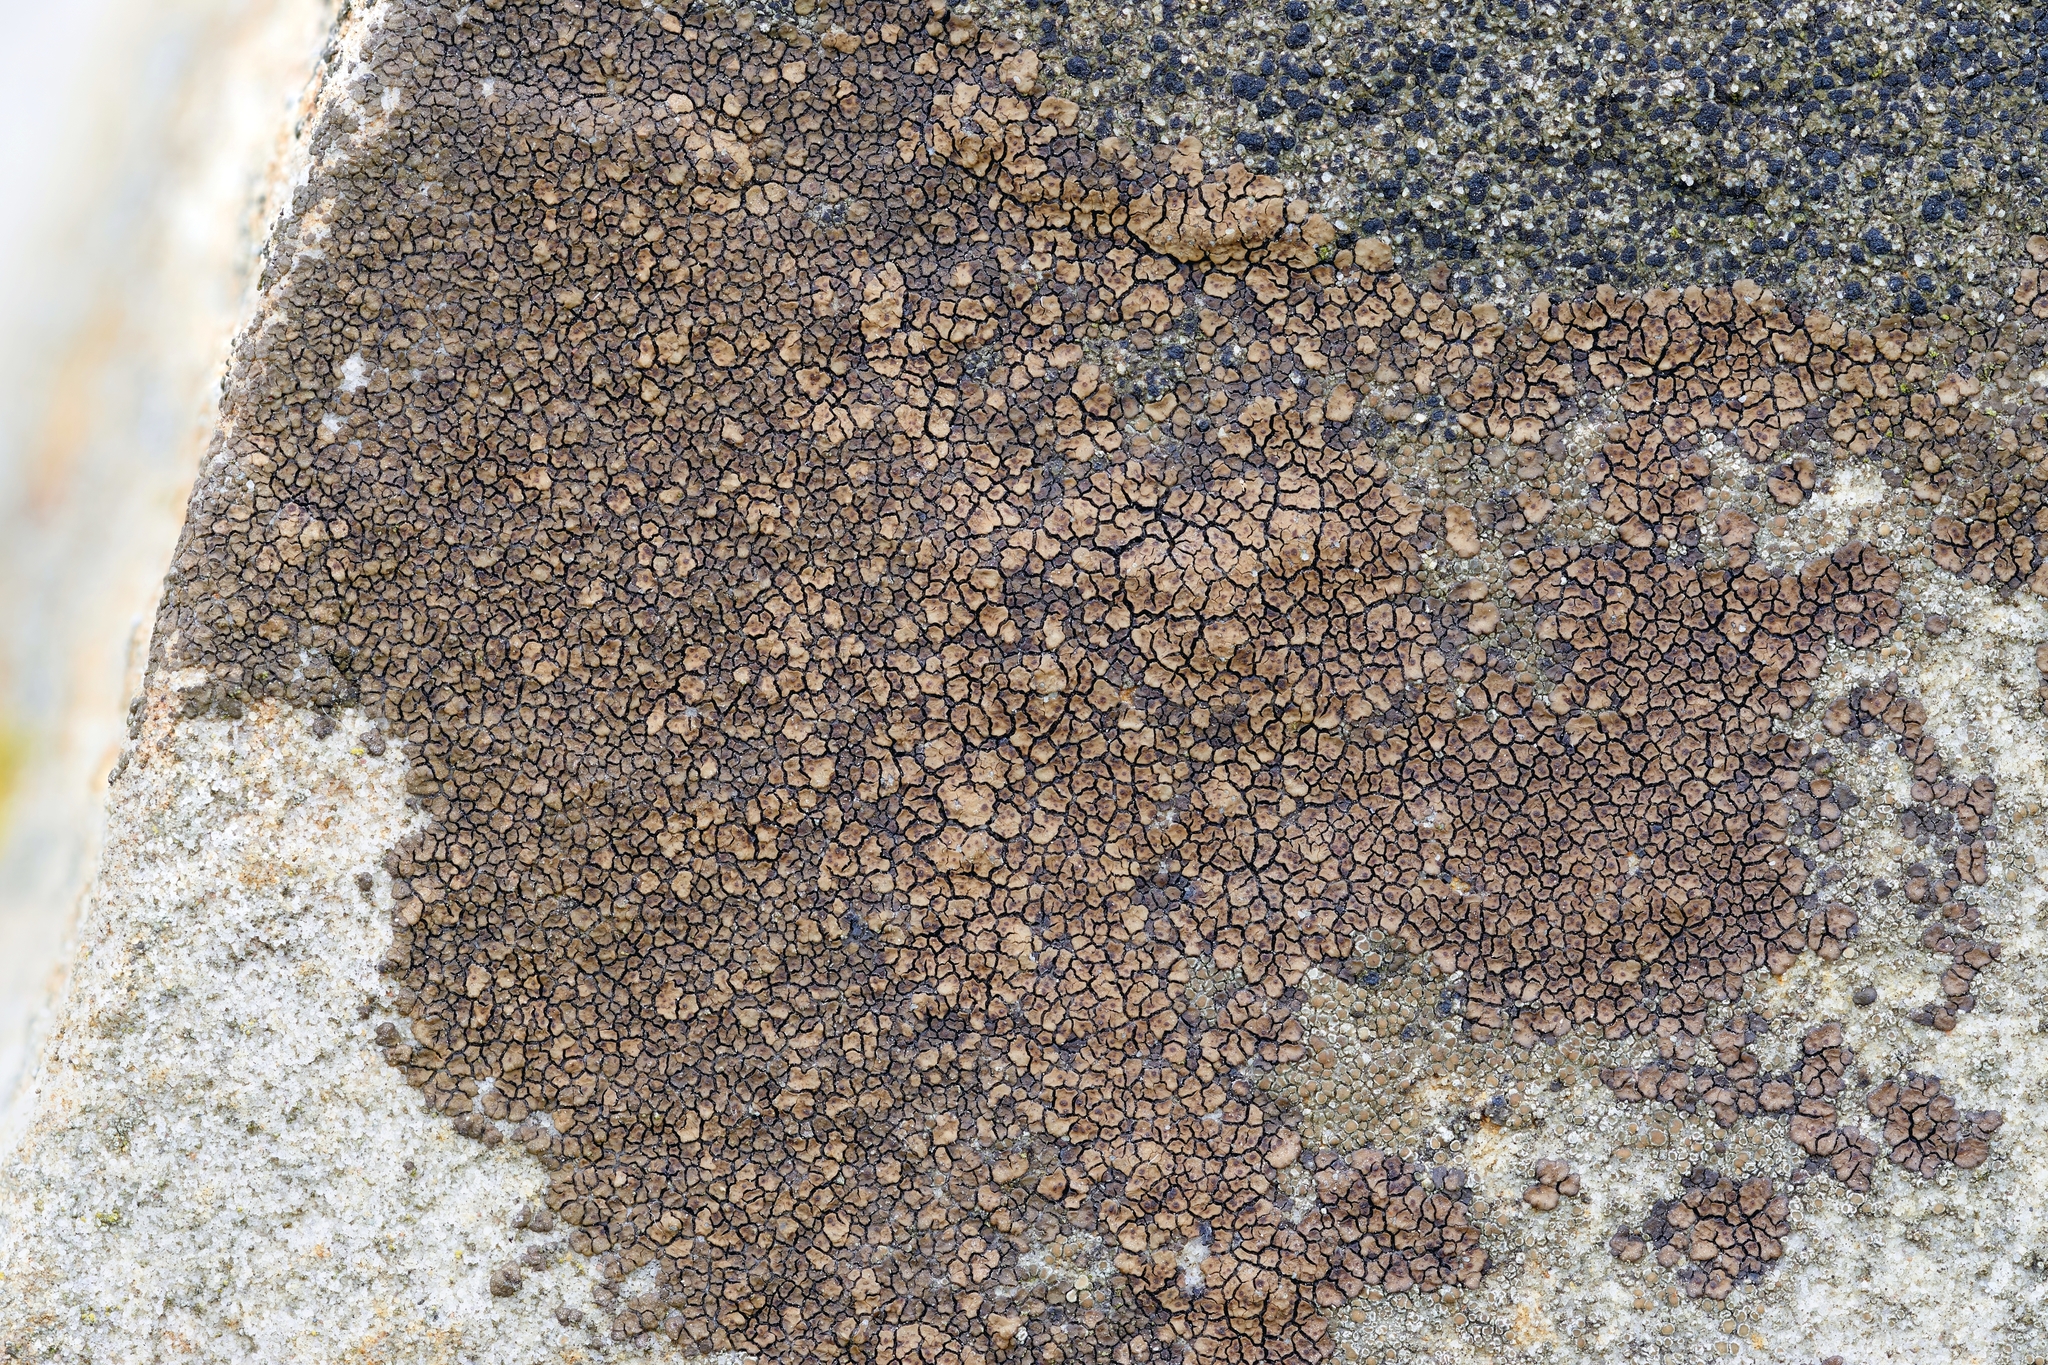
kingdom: Fungi
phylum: Ascomycota
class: Lecanoromycetes
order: Acarosporales
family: Acarosporaceae
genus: Acarospora
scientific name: Acarospora fuscata
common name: Brown cobblestone lichen
